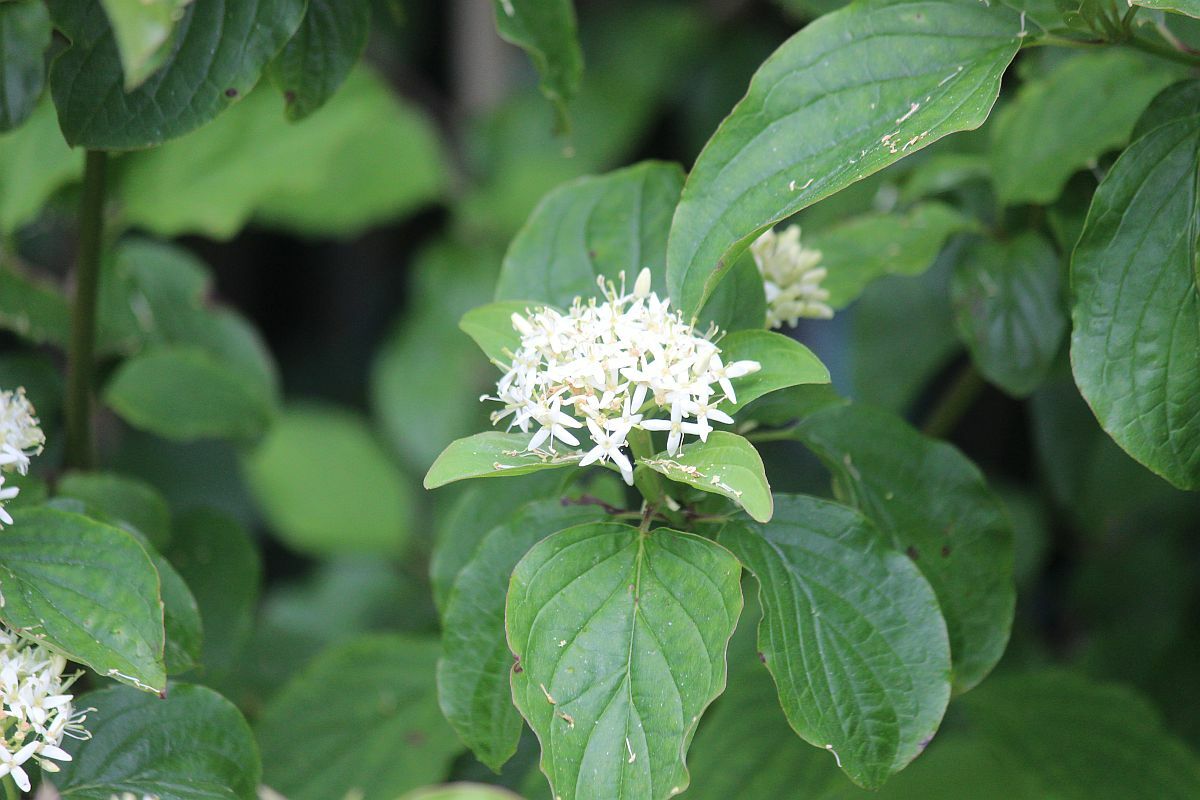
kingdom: Plantae
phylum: Tracheophyta
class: Magnoliopsida
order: Cornales
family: Cornaceae
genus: Cornus
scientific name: Cornus sanguinea
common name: Dogwood
